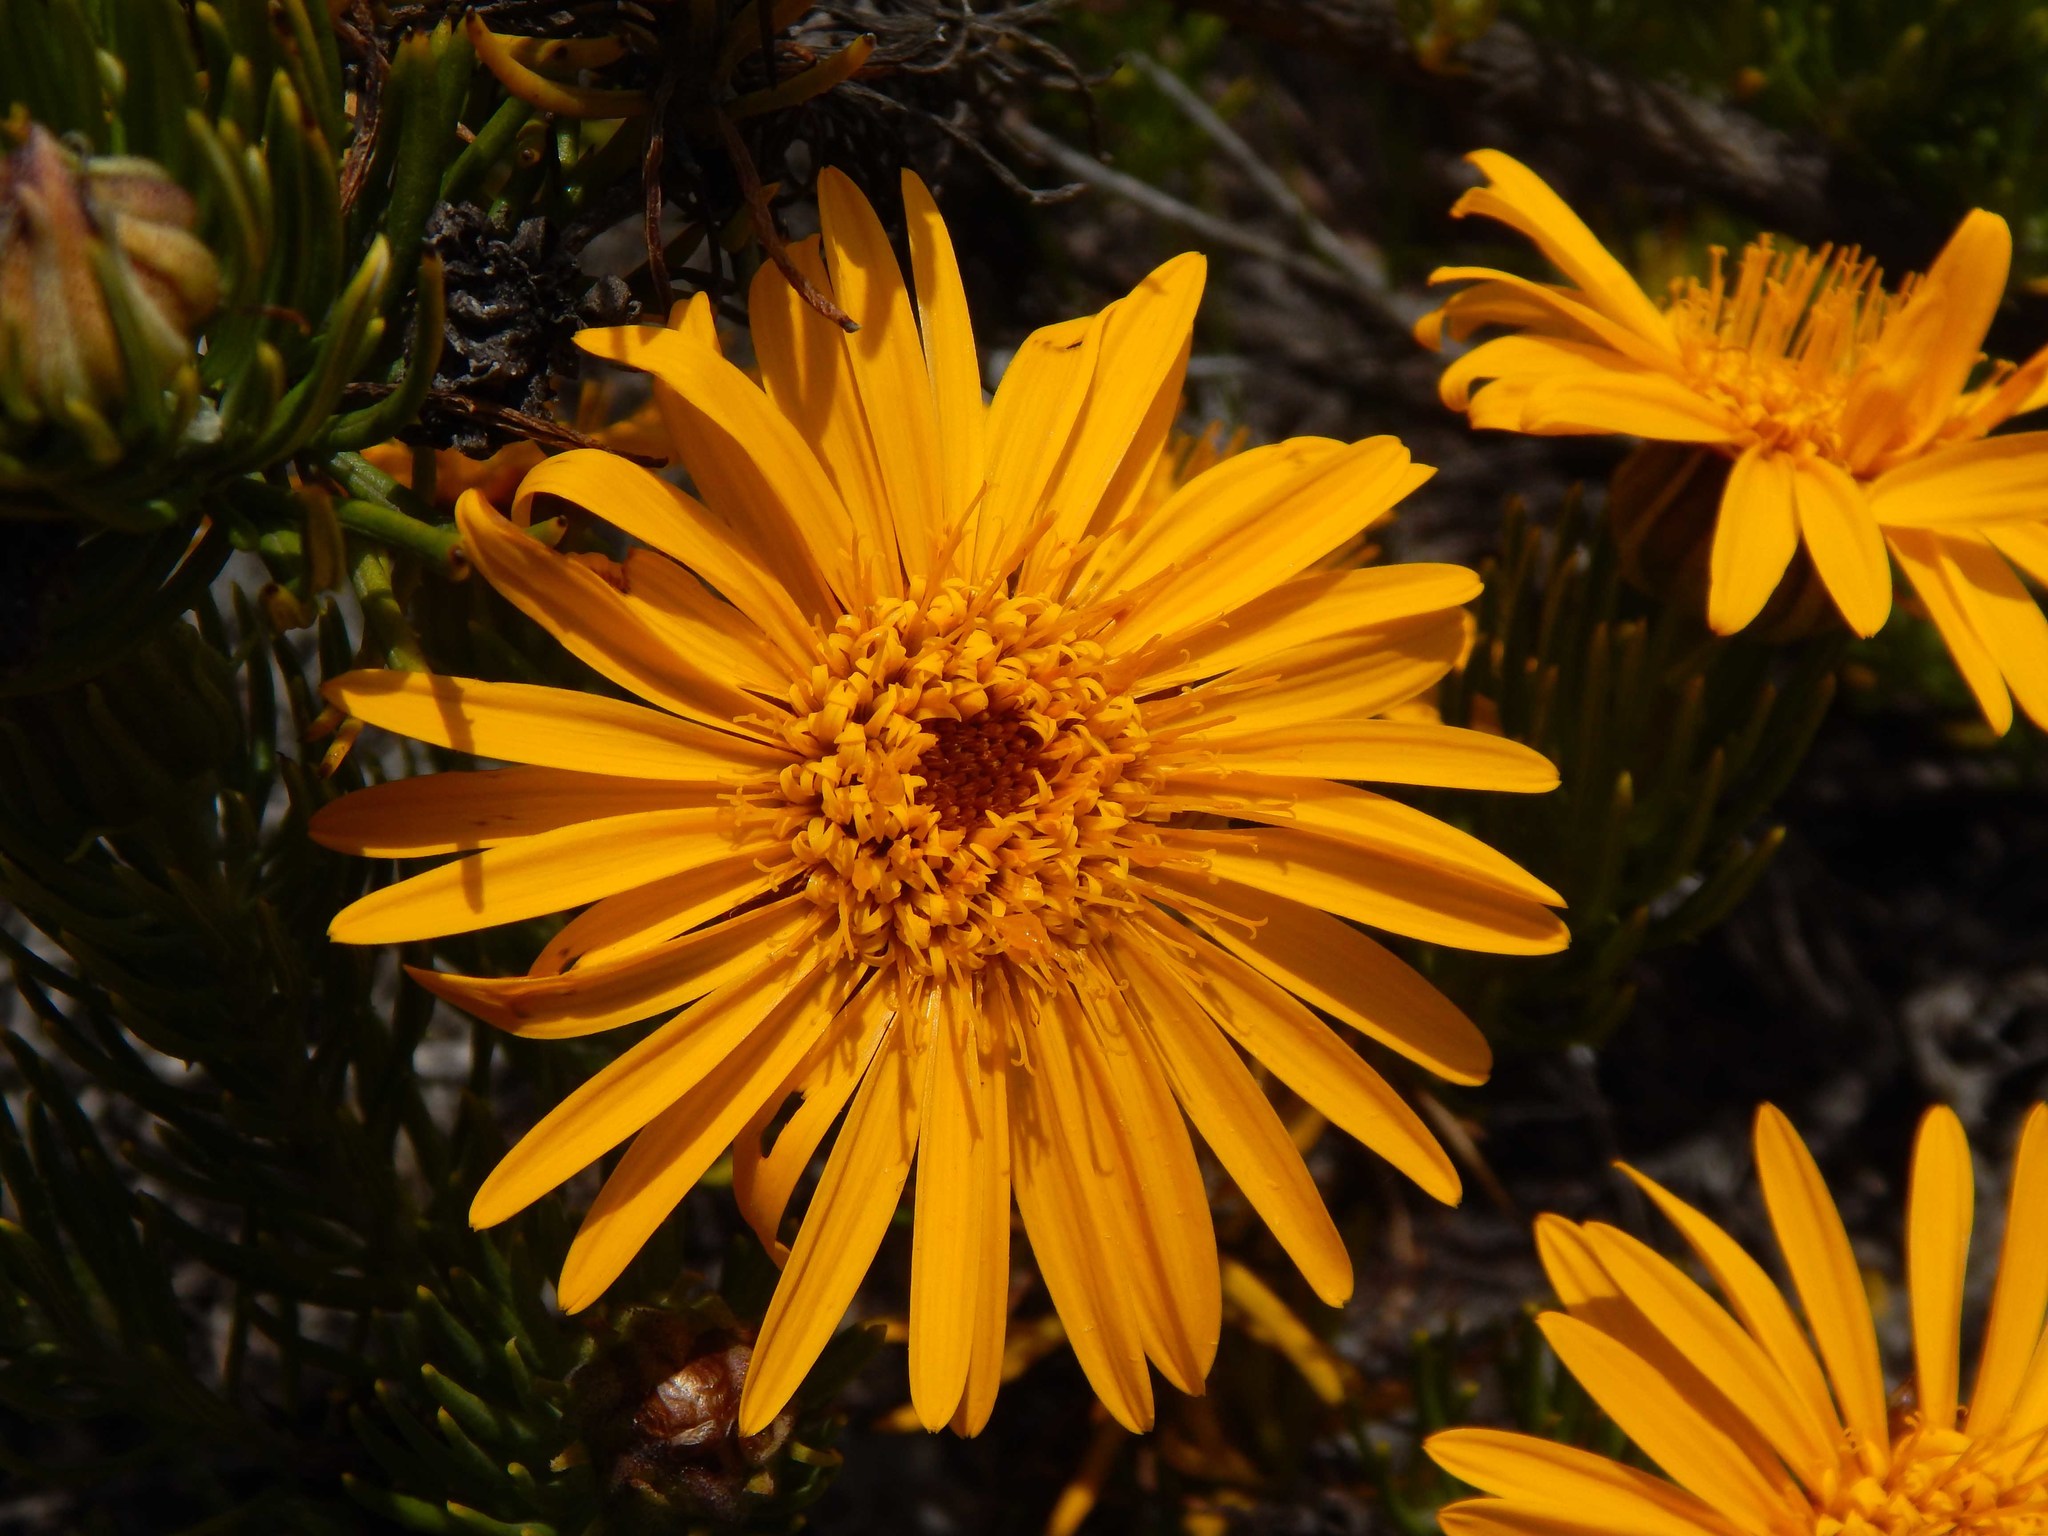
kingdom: Plantae
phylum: Tracheophyta
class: Magnoliopsida
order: Asterales
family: Asteraceae
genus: Heterolepis
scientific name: Heterolepis aliena
